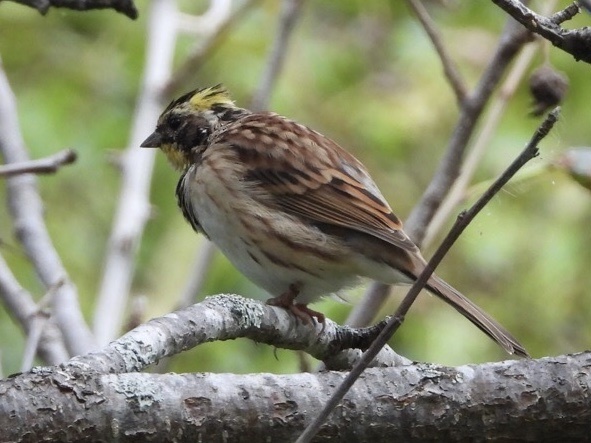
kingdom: Animalia
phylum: Chordata
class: Aves
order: Passeriformes
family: Emberizidae
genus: Emberiza
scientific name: Emberiza elegans
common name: Yellow-throated bunting
